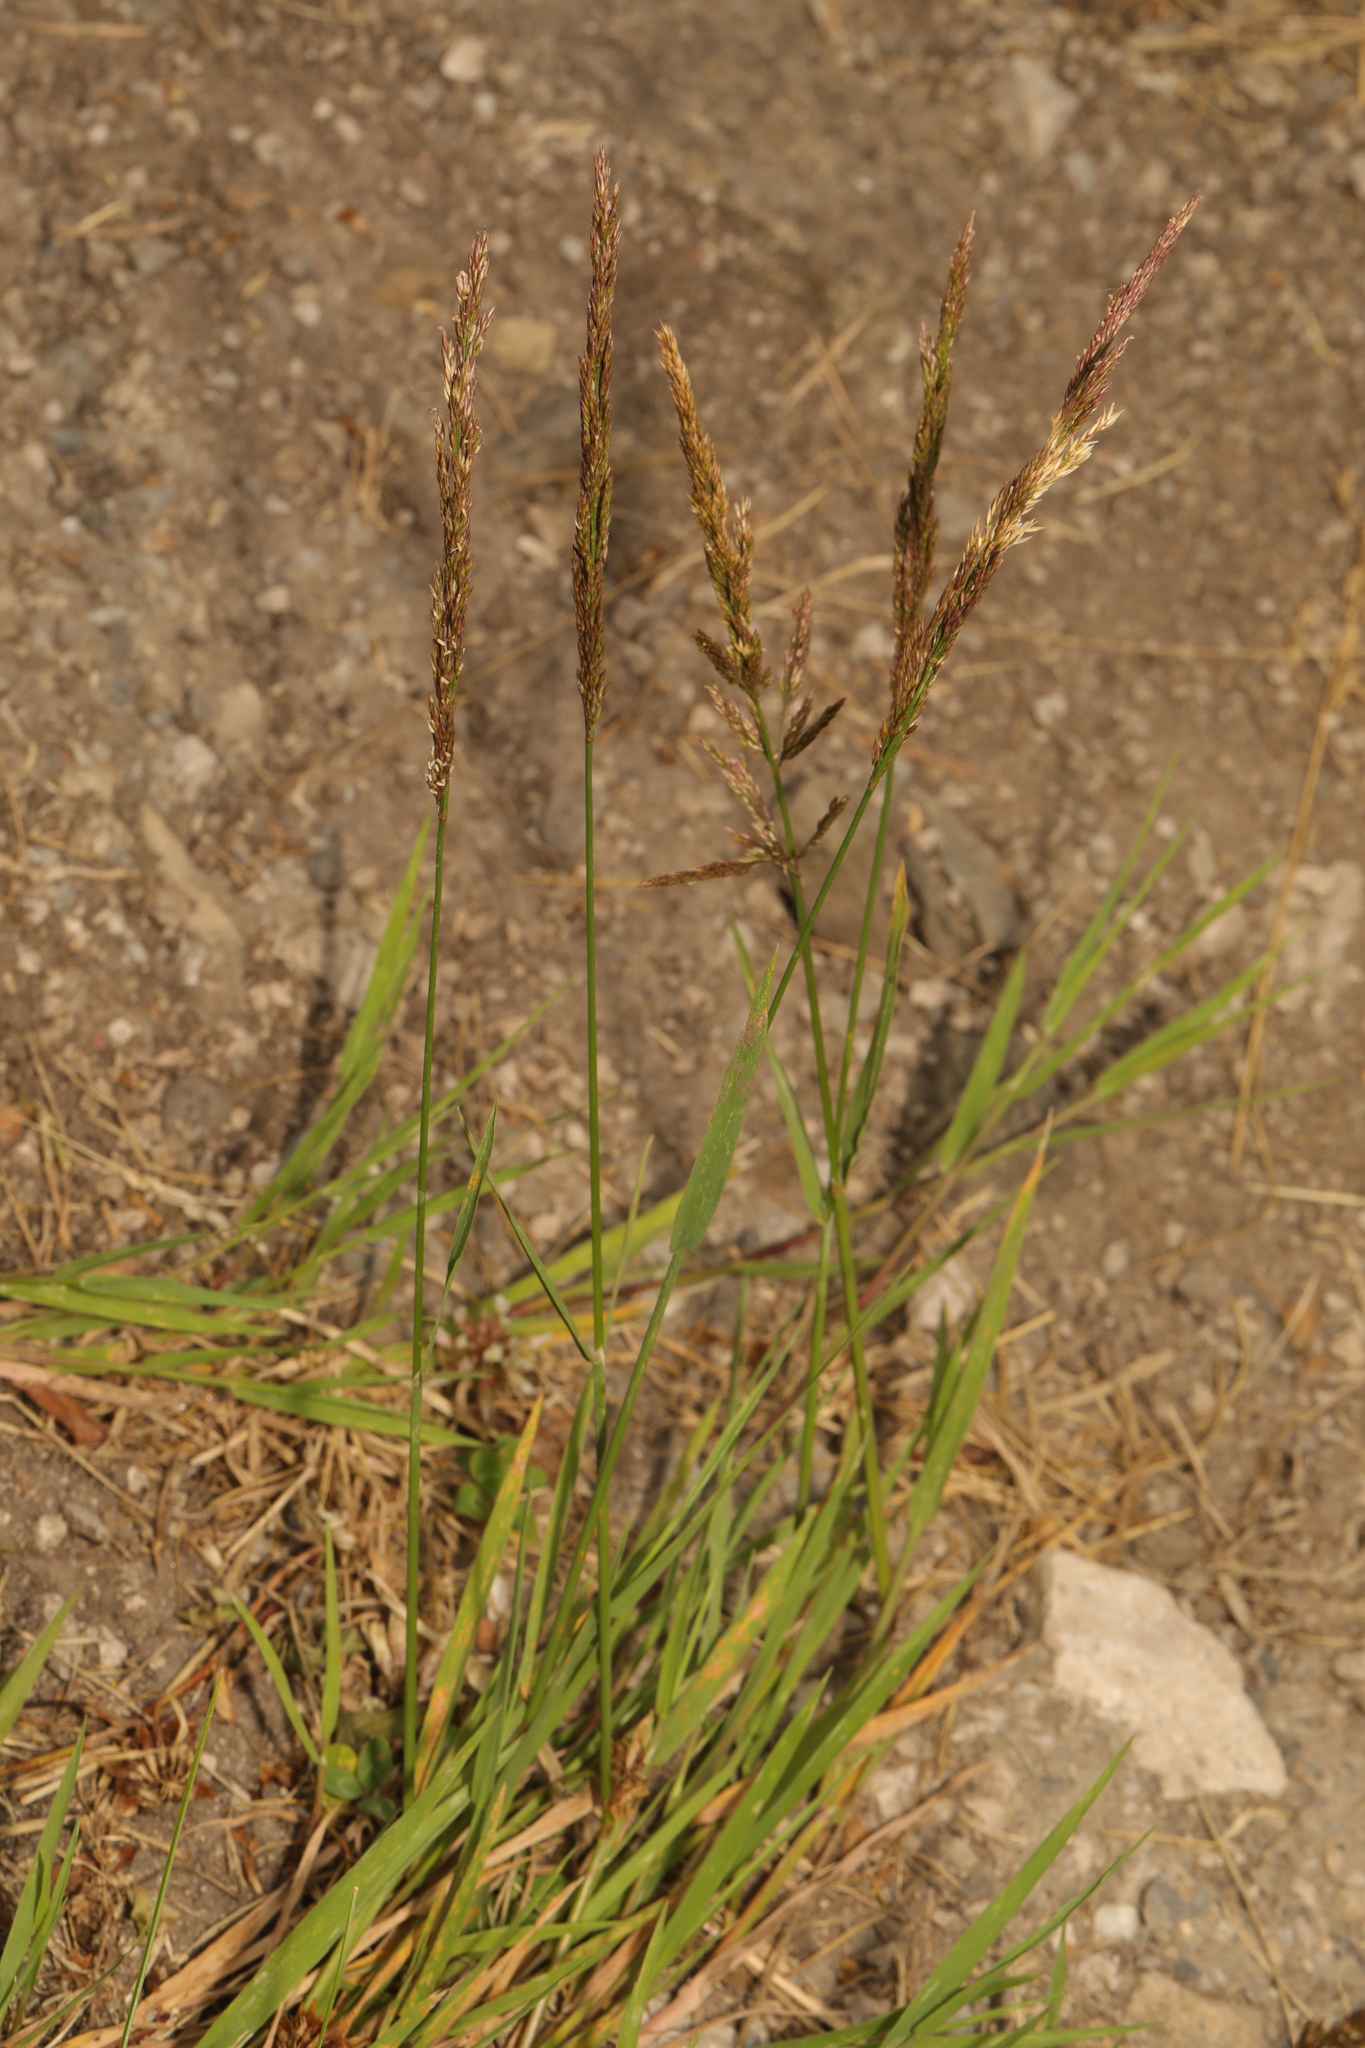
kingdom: Plantae
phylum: Tracheophyta
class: Liliopsida
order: Poales
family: Poaceae
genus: Agrostis
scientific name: Agrostis stolonifera
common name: Creeping bentgrass
